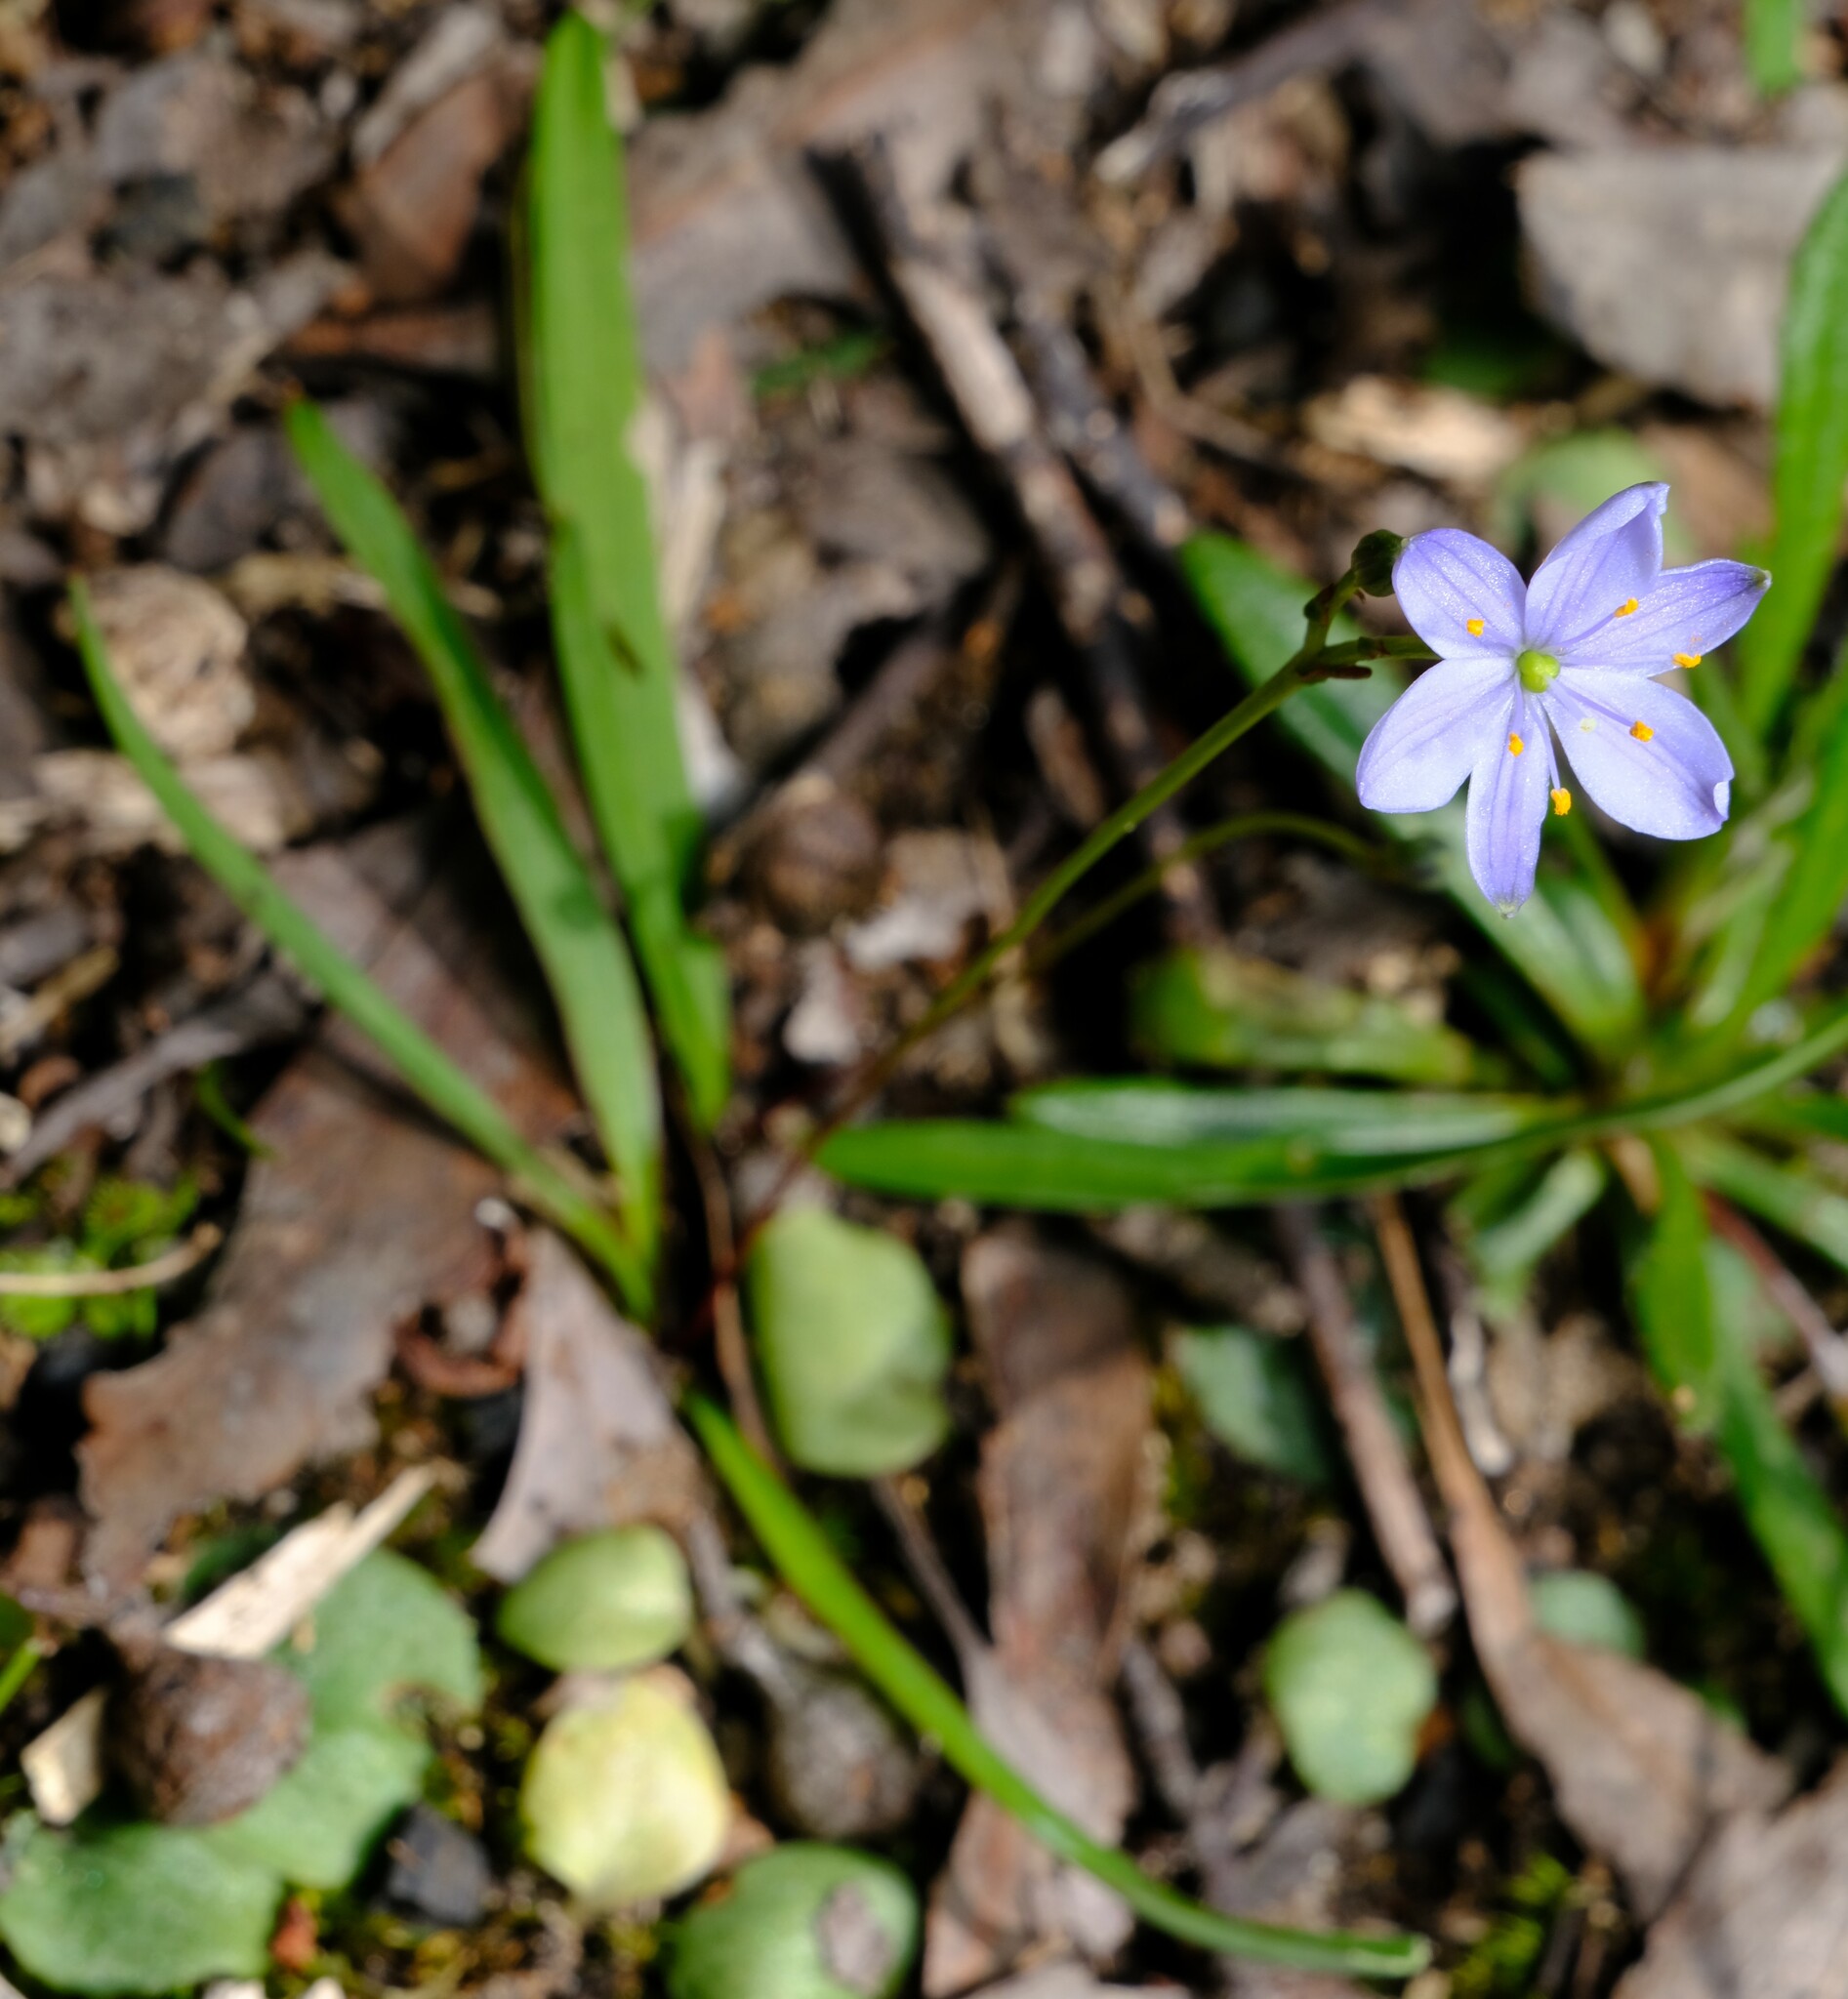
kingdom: Plantae
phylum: Tracheophyta
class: Liliopsida
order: Asparagales
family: Asphodelaceae
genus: Chamaescilla
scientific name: Chamaescilla corymbosa
